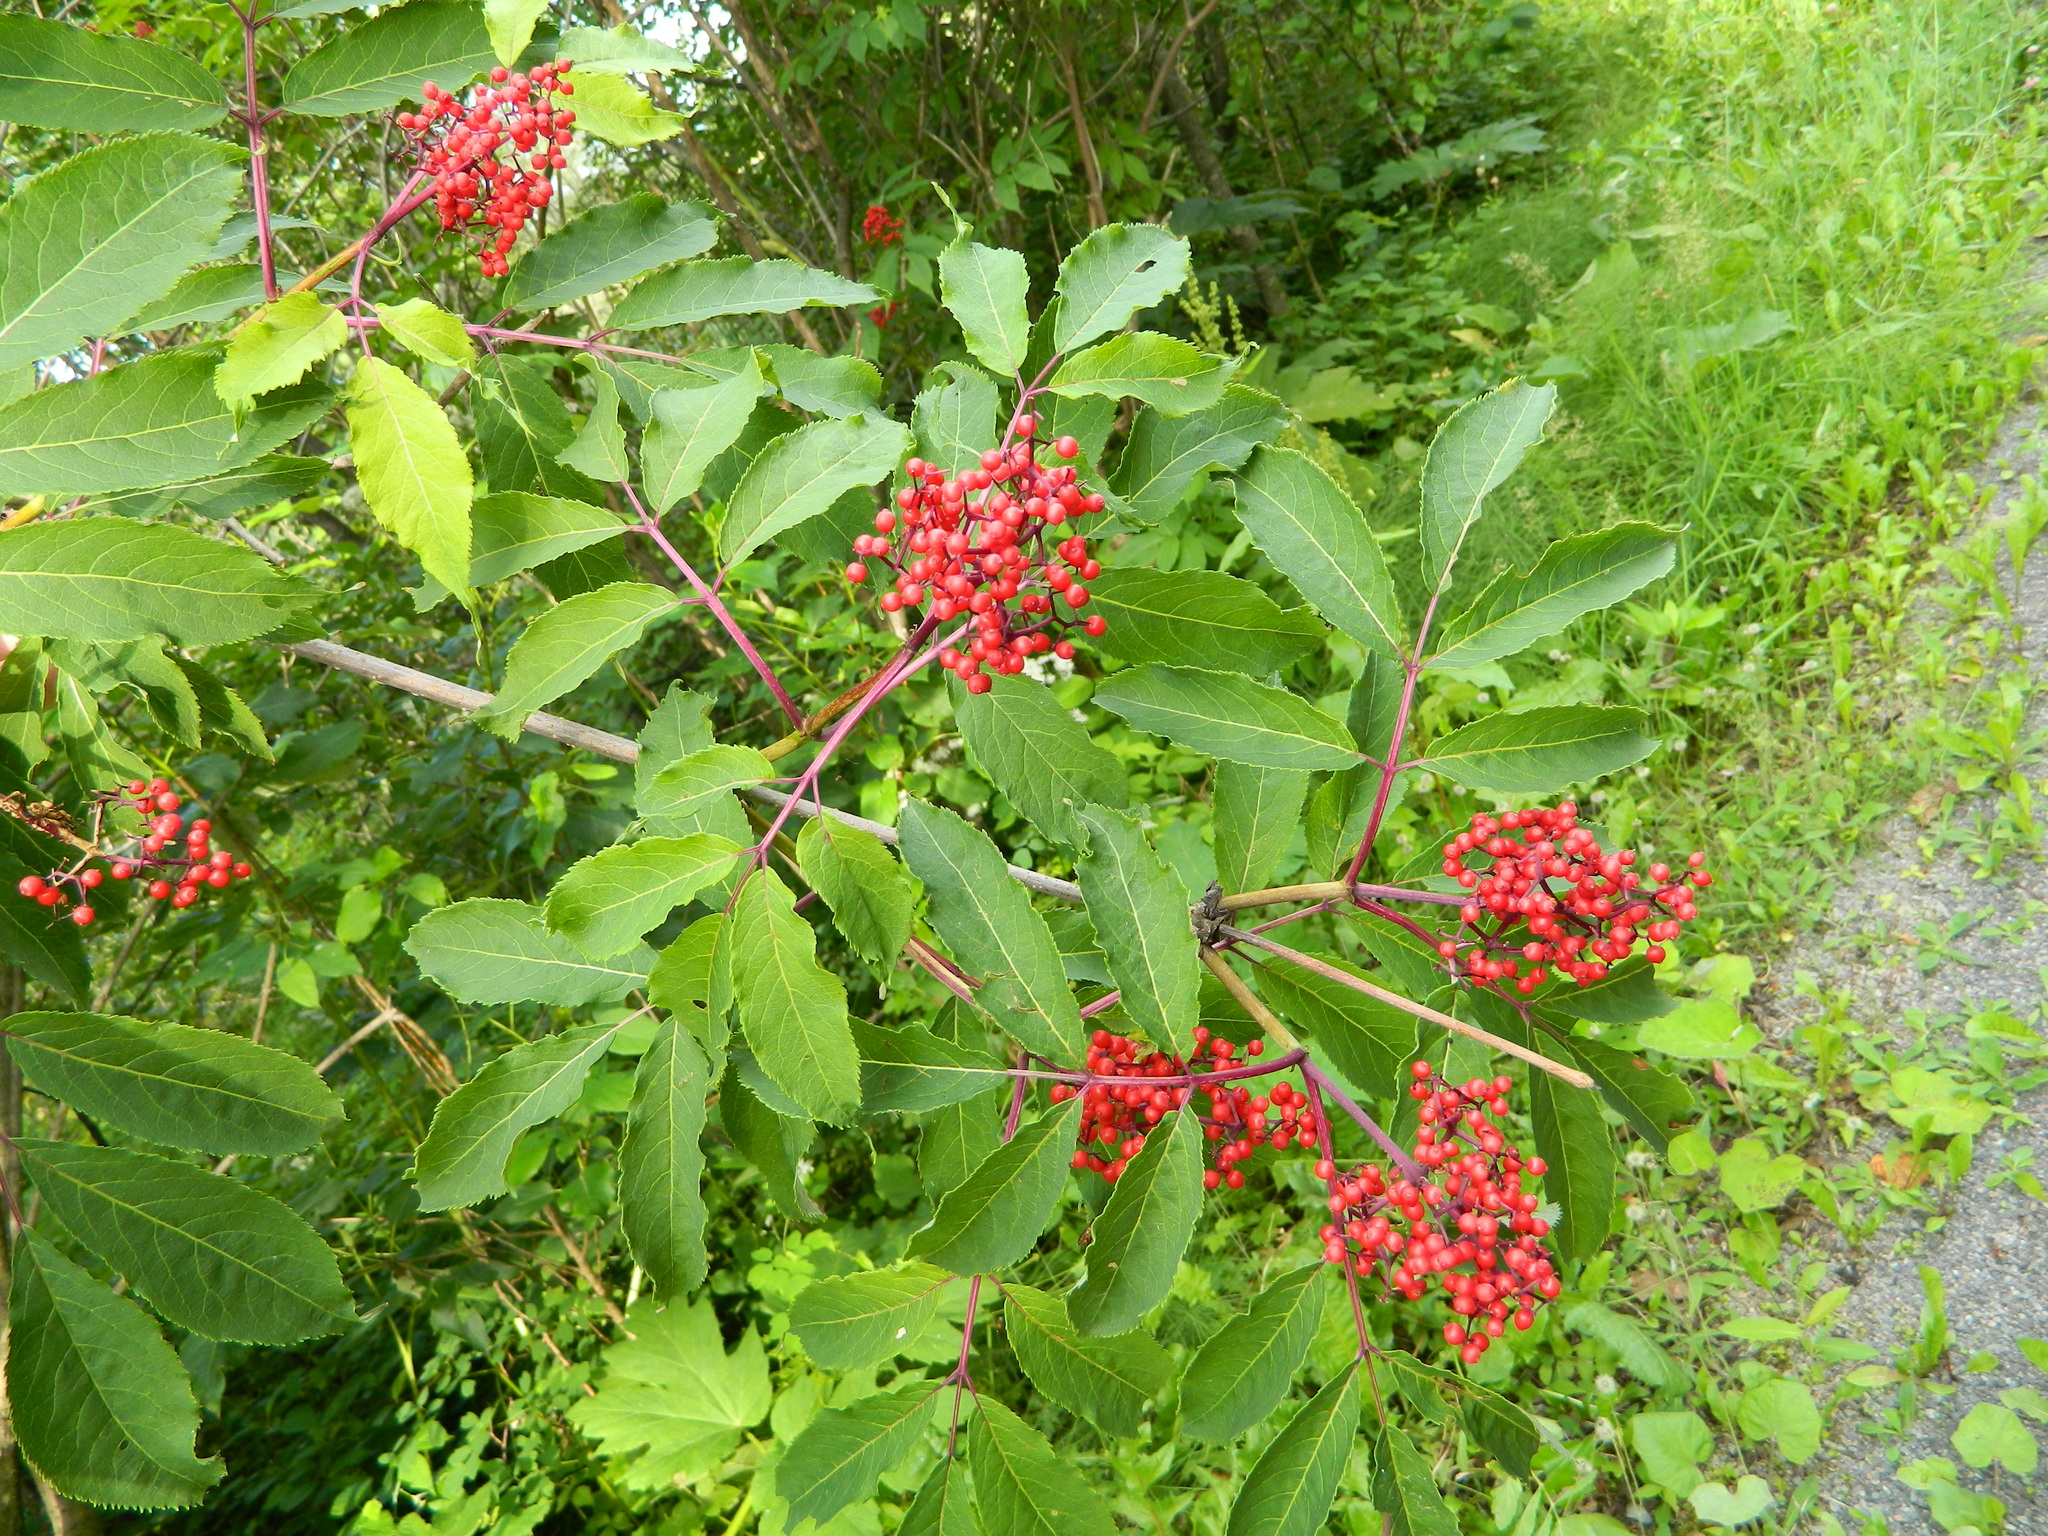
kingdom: Plantae
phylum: Tracheophyta
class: Magnoliopsida
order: Dipsacales
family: Viburnaceae
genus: Sambucus
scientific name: Sambucus racemosa
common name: Red-berried elder
